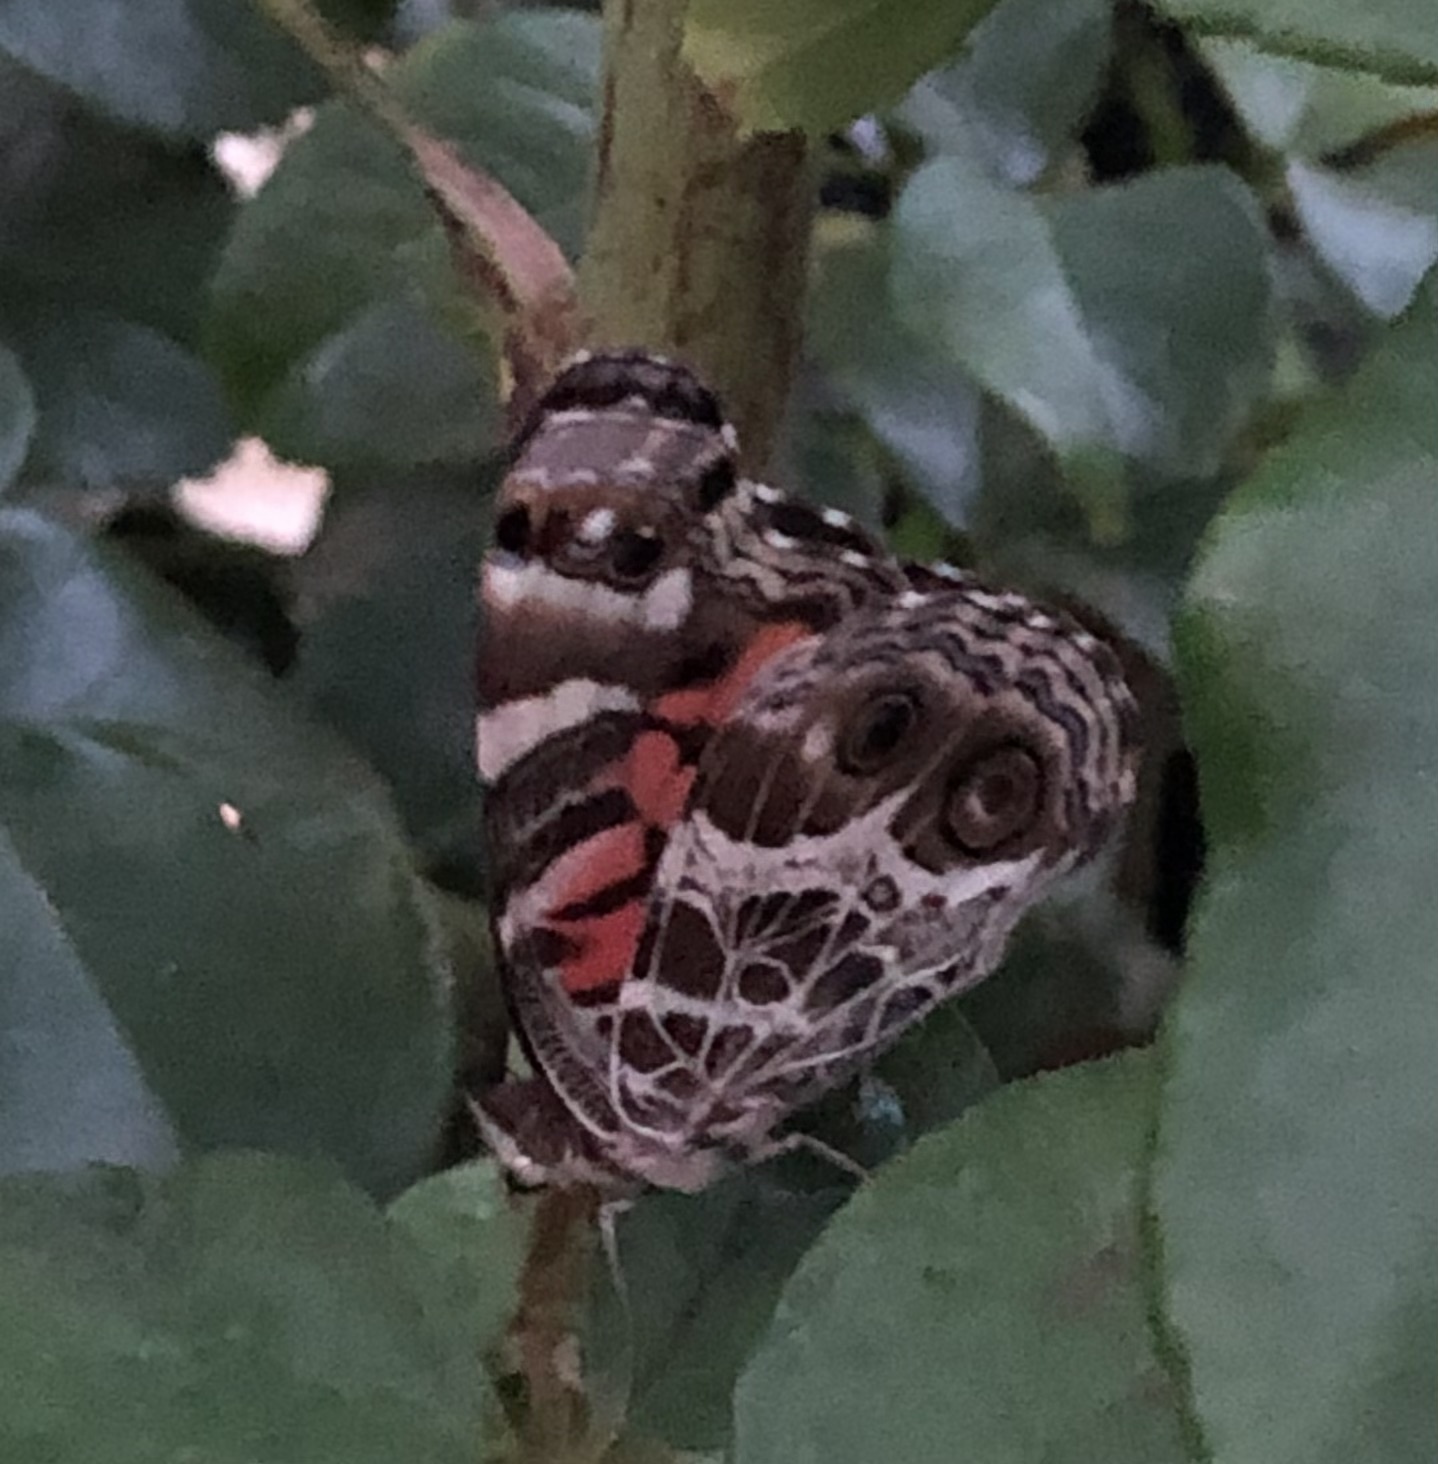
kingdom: Animalia
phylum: Arthropoda
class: Insecta
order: Lepidoptera
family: Nymphalidae
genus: Vanessa
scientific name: Vanessa virginiensis
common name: American lady
